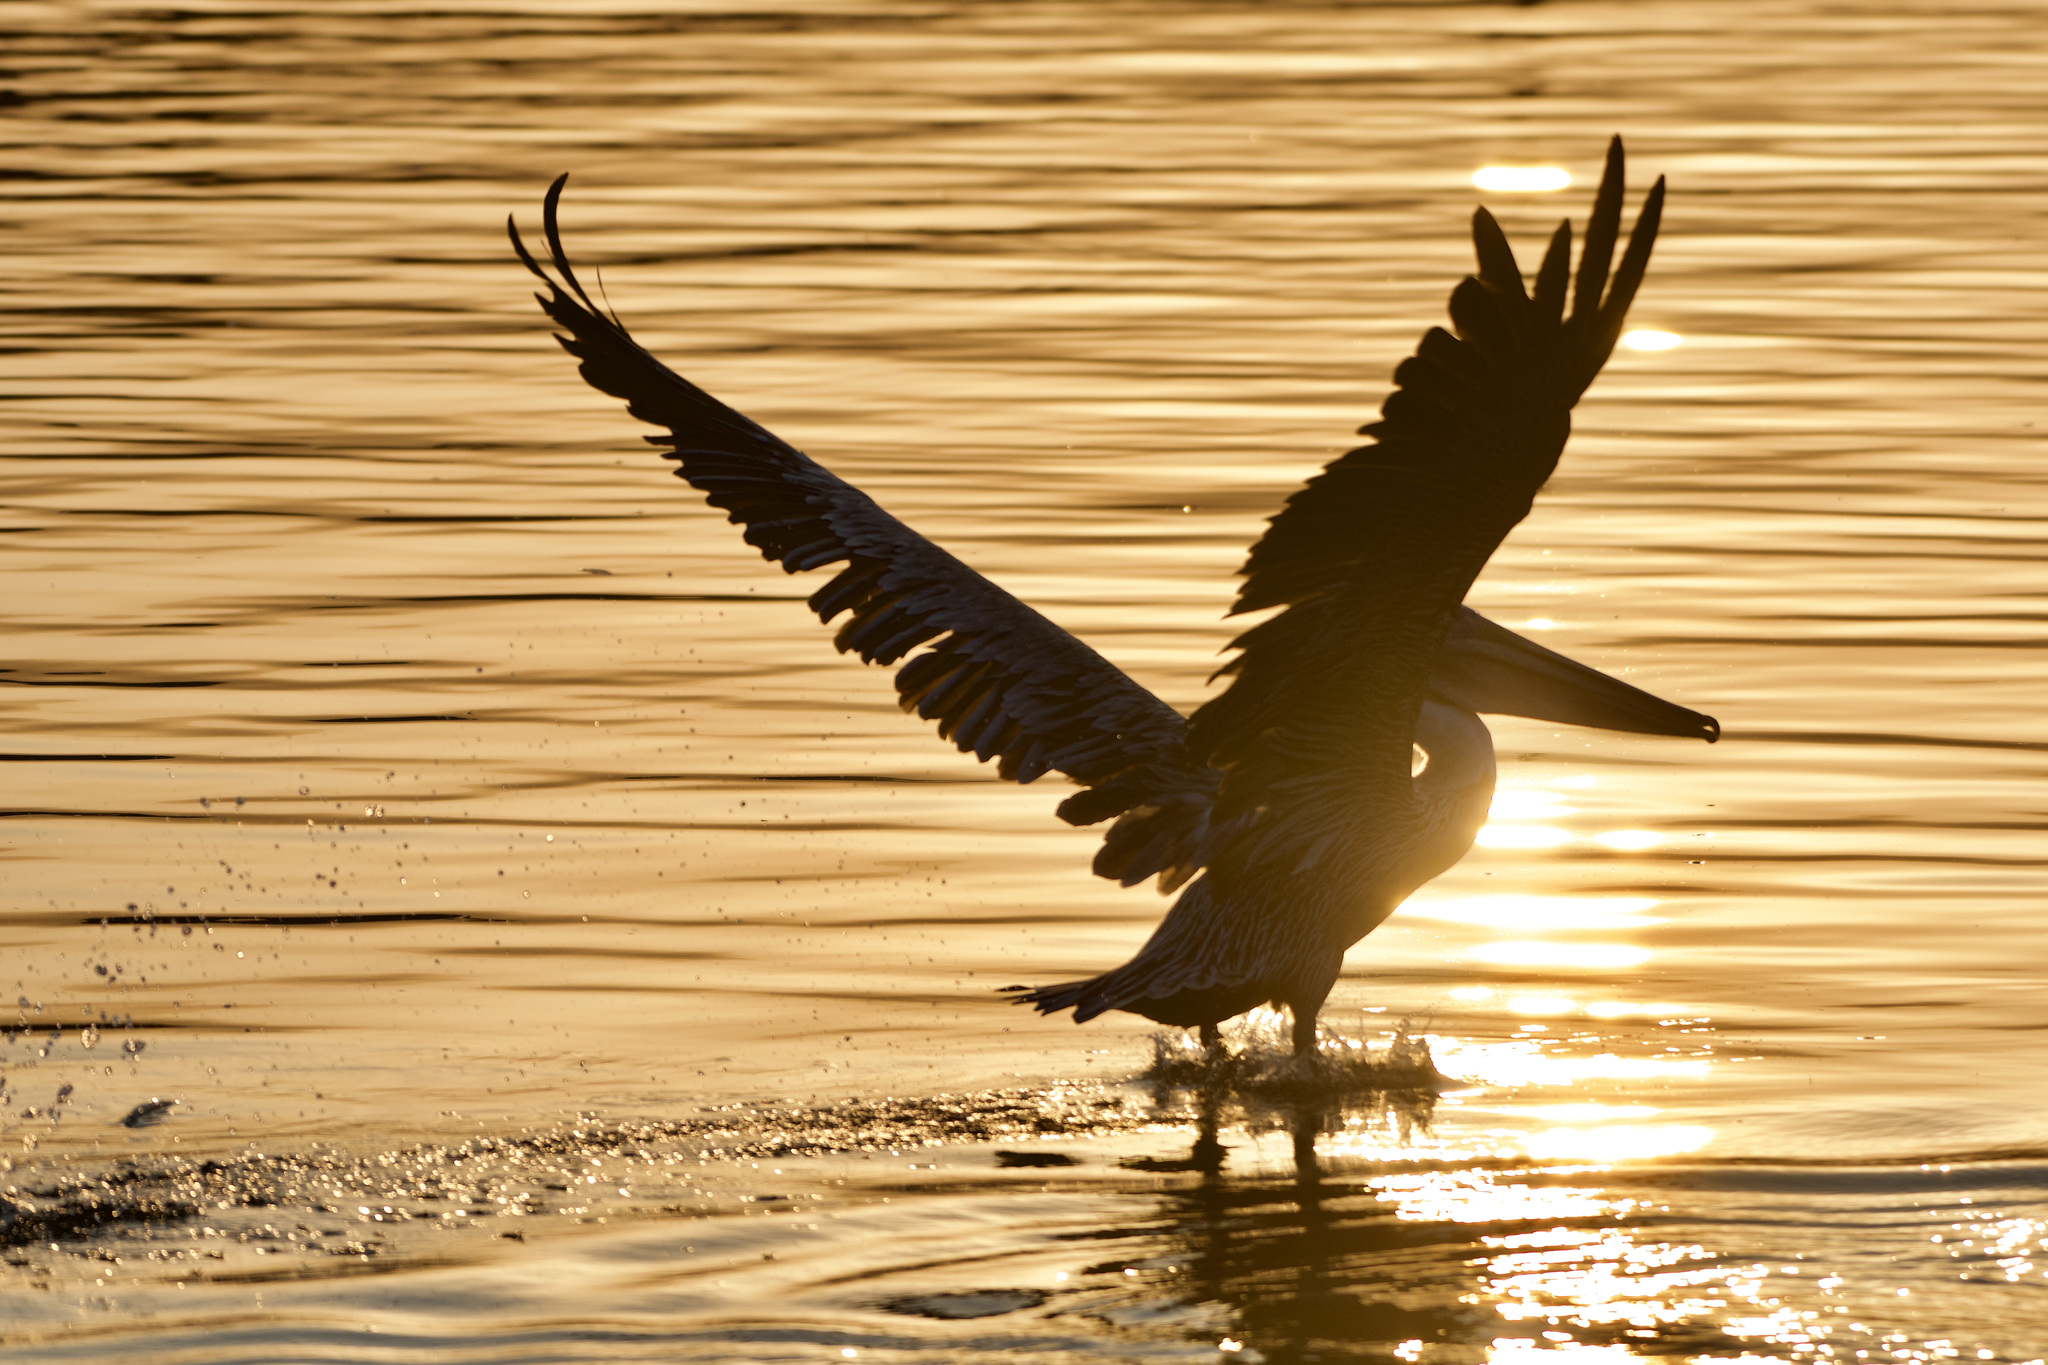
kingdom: Animalia
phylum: Chordata
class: Aves
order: Pelecaniformes
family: Pelecanidae
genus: Pelecanus
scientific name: Pelecanus occidentalis
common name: Brown pelican
